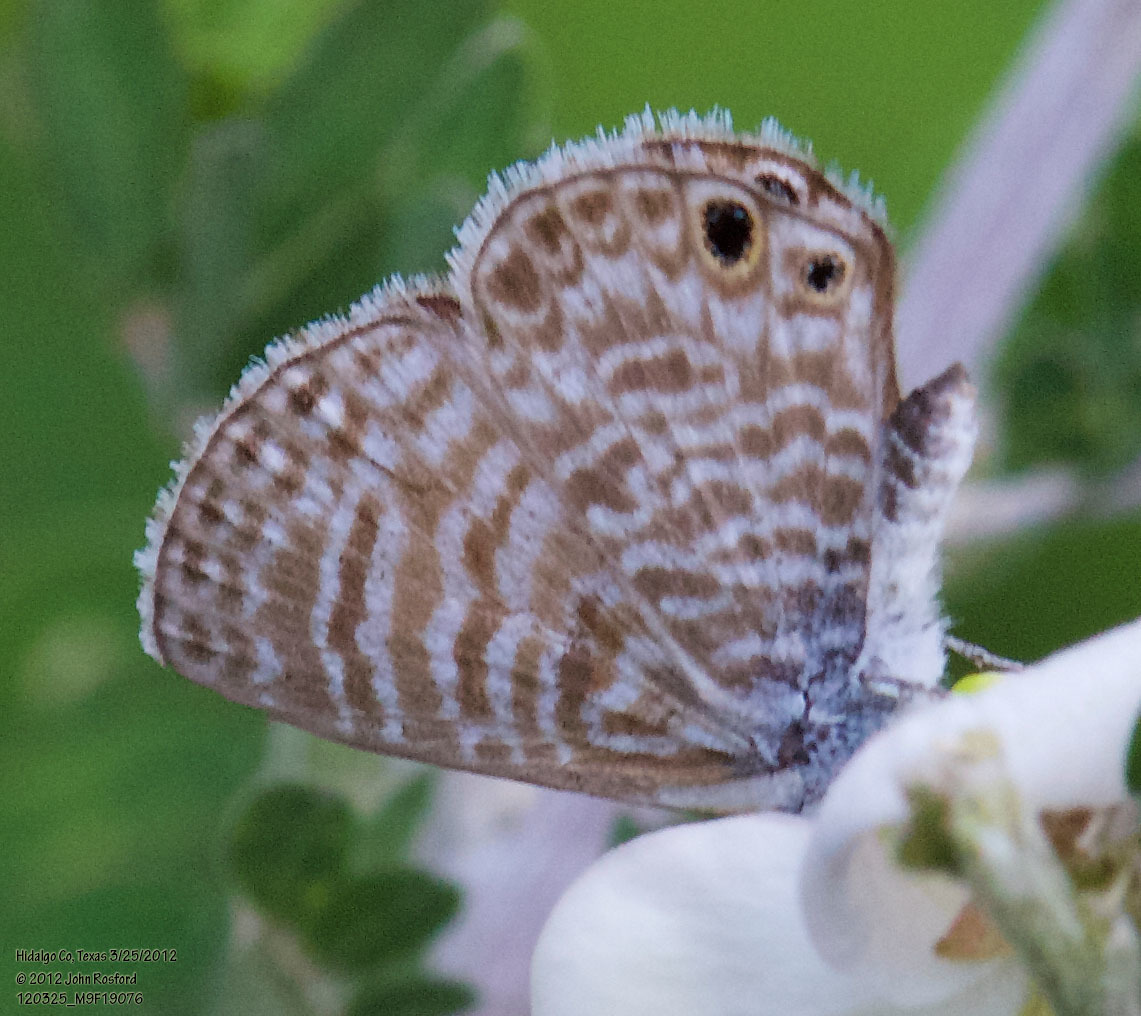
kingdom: Animalia
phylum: Arthropoda
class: Insecta
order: Lepidoptera
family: Lycaenidae
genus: Leptotes
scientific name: Leptotes marina
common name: Marine blue
